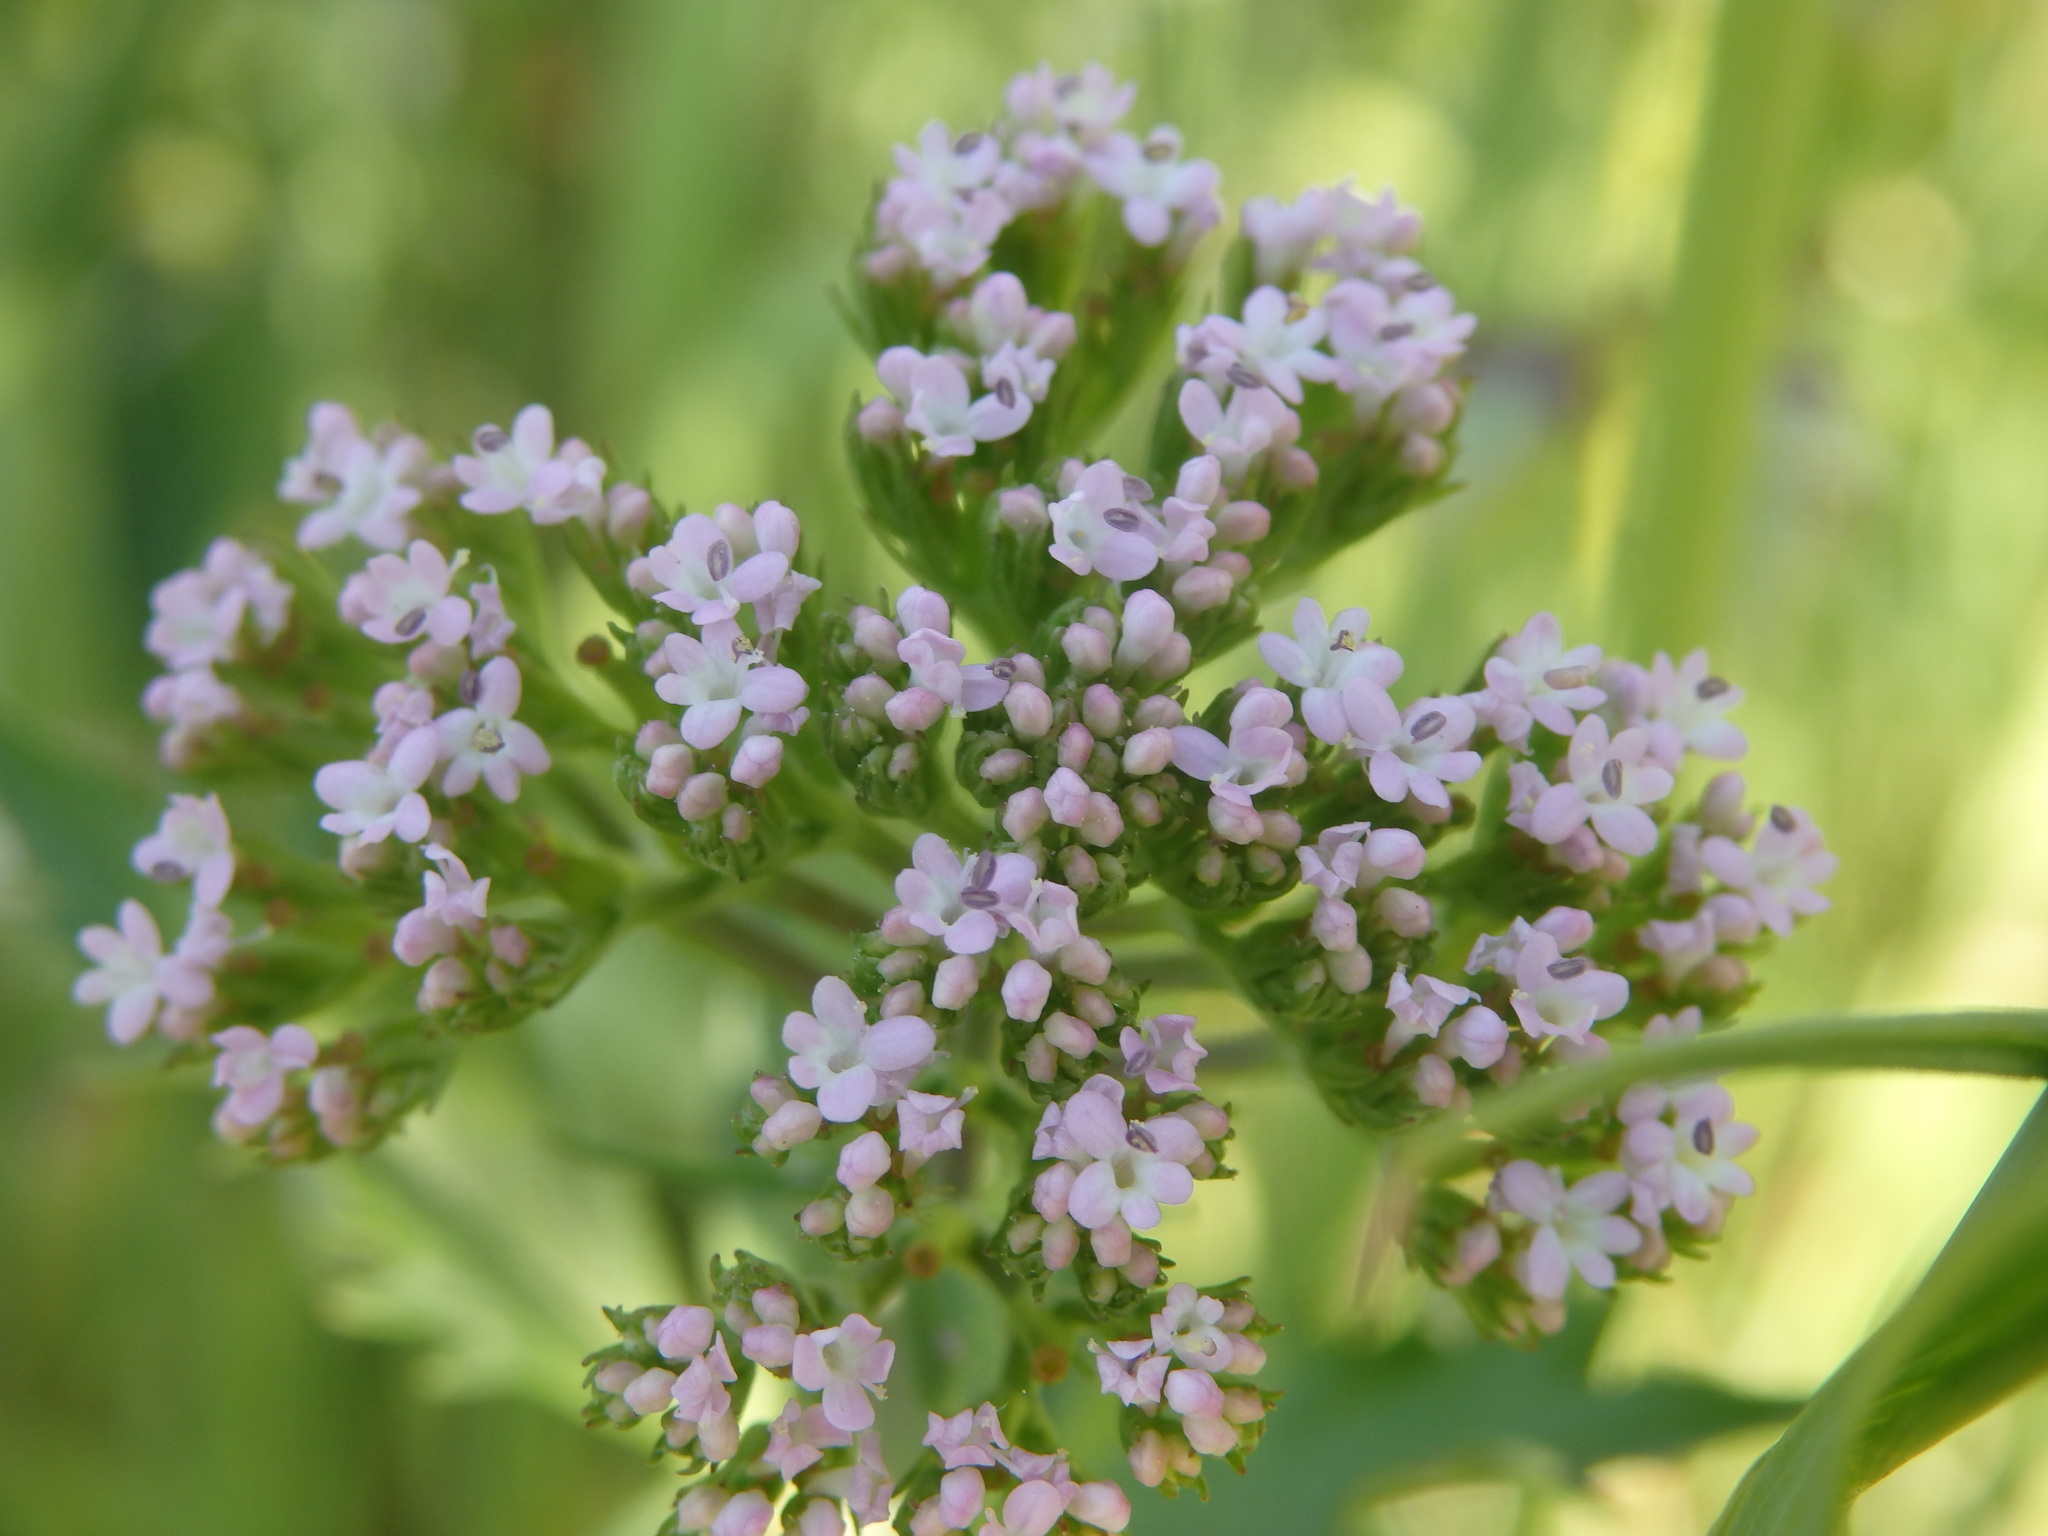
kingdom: Plantae
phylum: Tracheophyta
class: Magnoliopsida
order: Dipsacales
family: Caprifoliaceae
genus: Centranthus
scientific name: Centranthus calcitrapae
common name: Annual valerian
